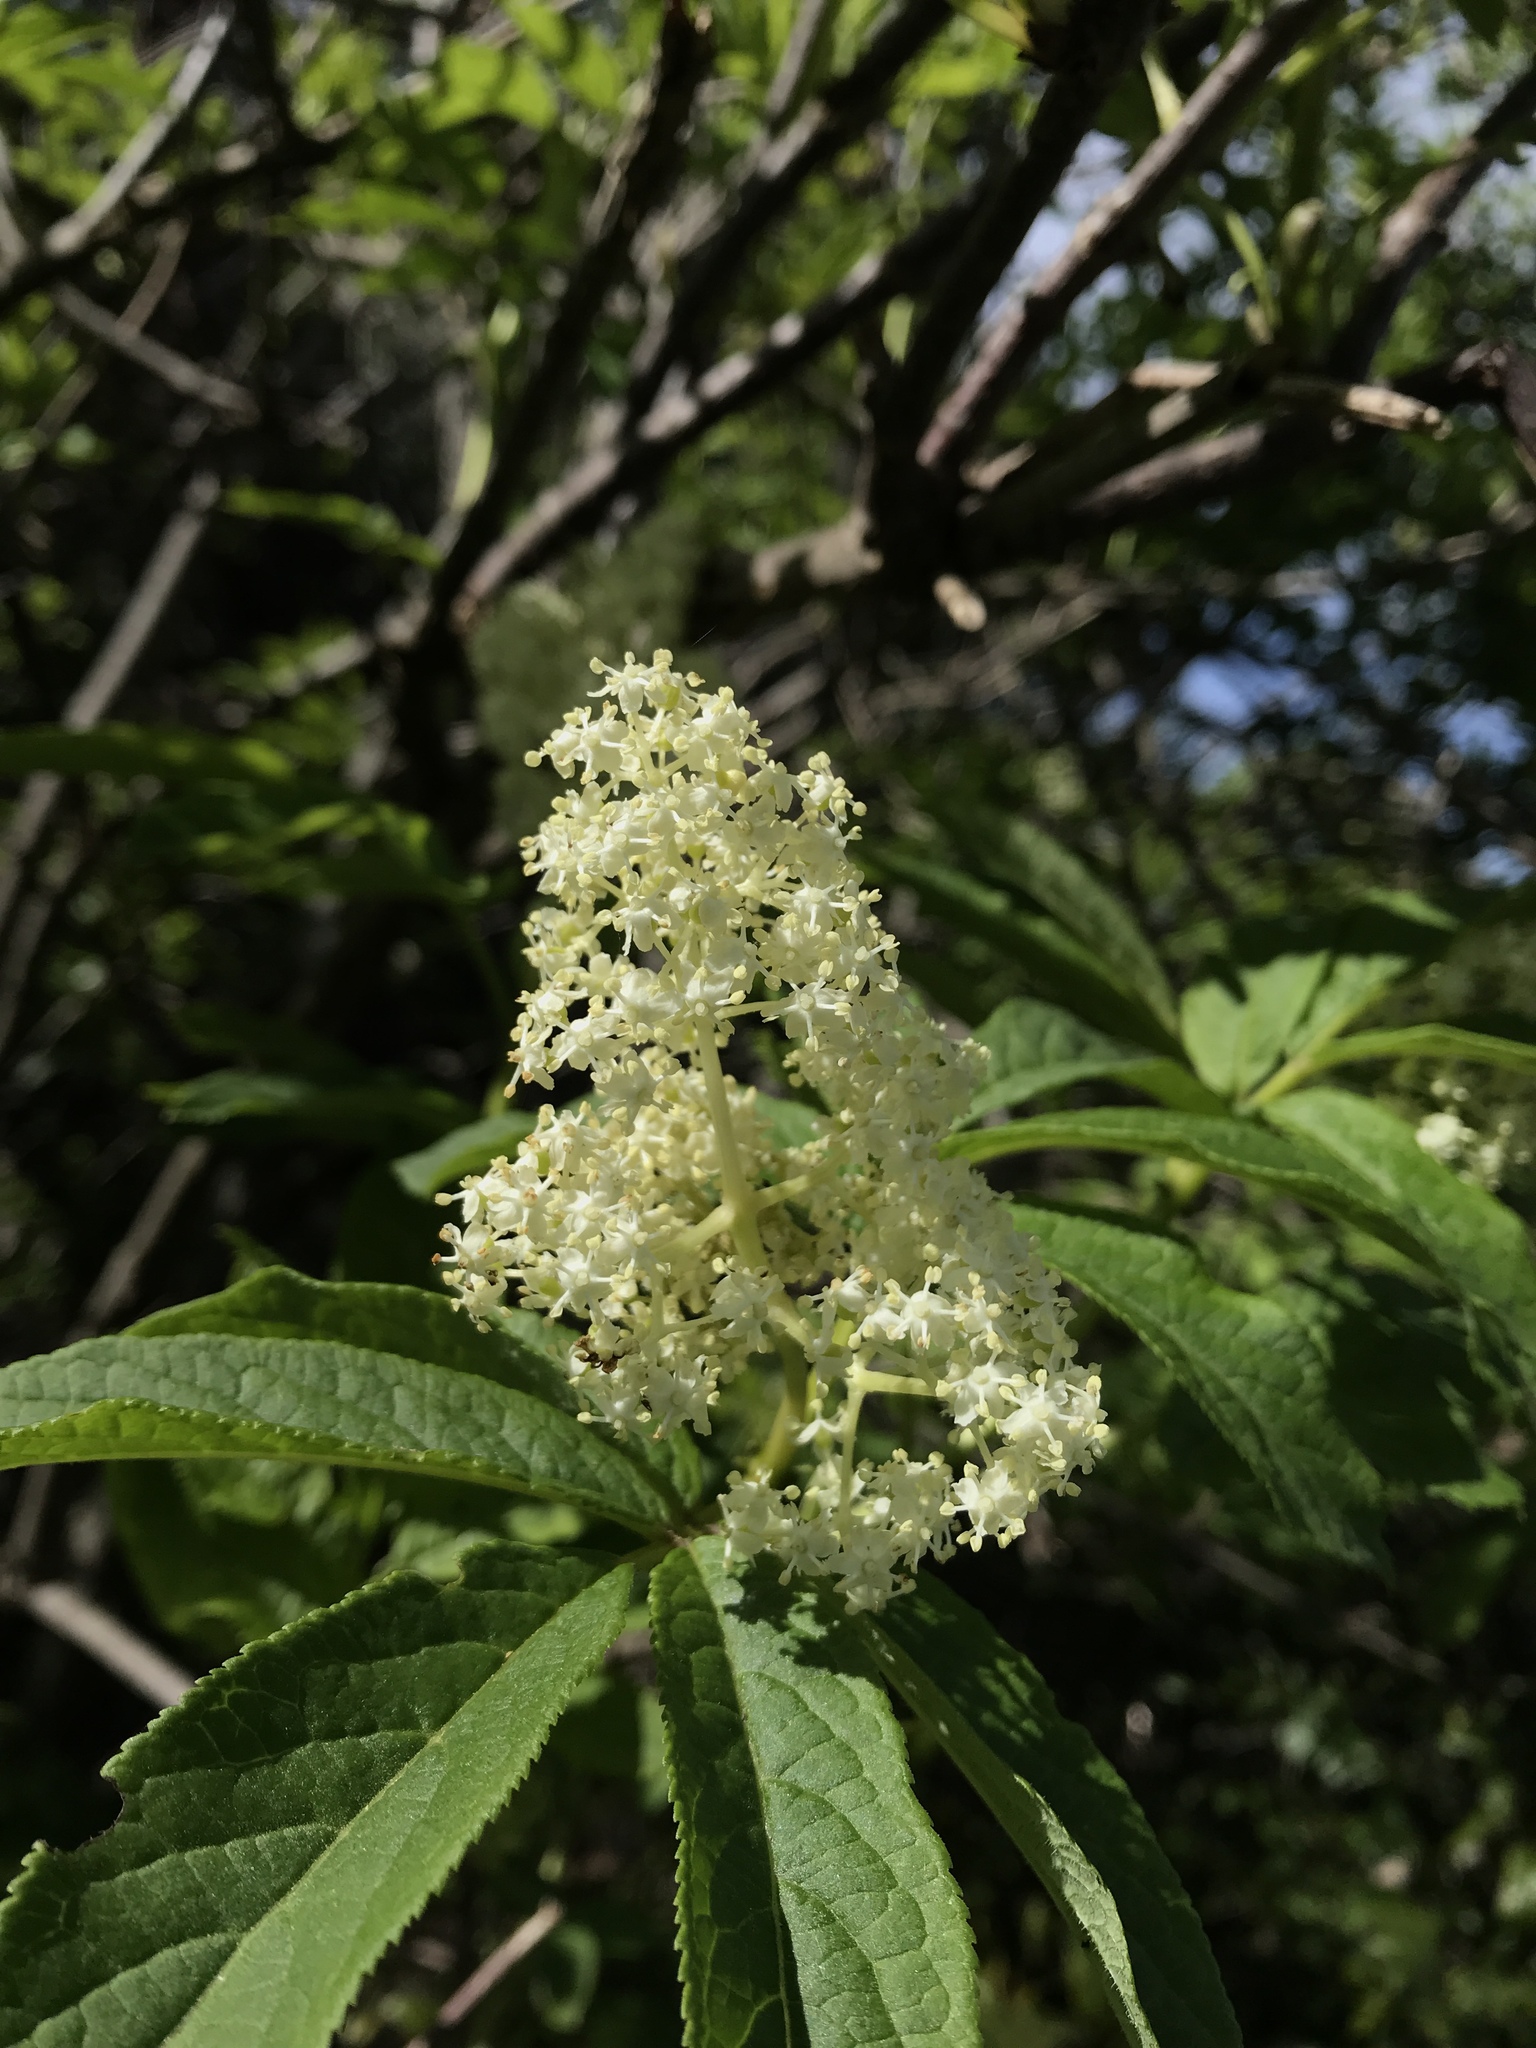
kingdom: Plantae
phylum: Tracheophyta
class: Magnoliopsida
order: Dipsacales
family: Viburnaceae
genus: Sambucus
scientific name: Sambucus racemosa
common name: Red-berried elder
